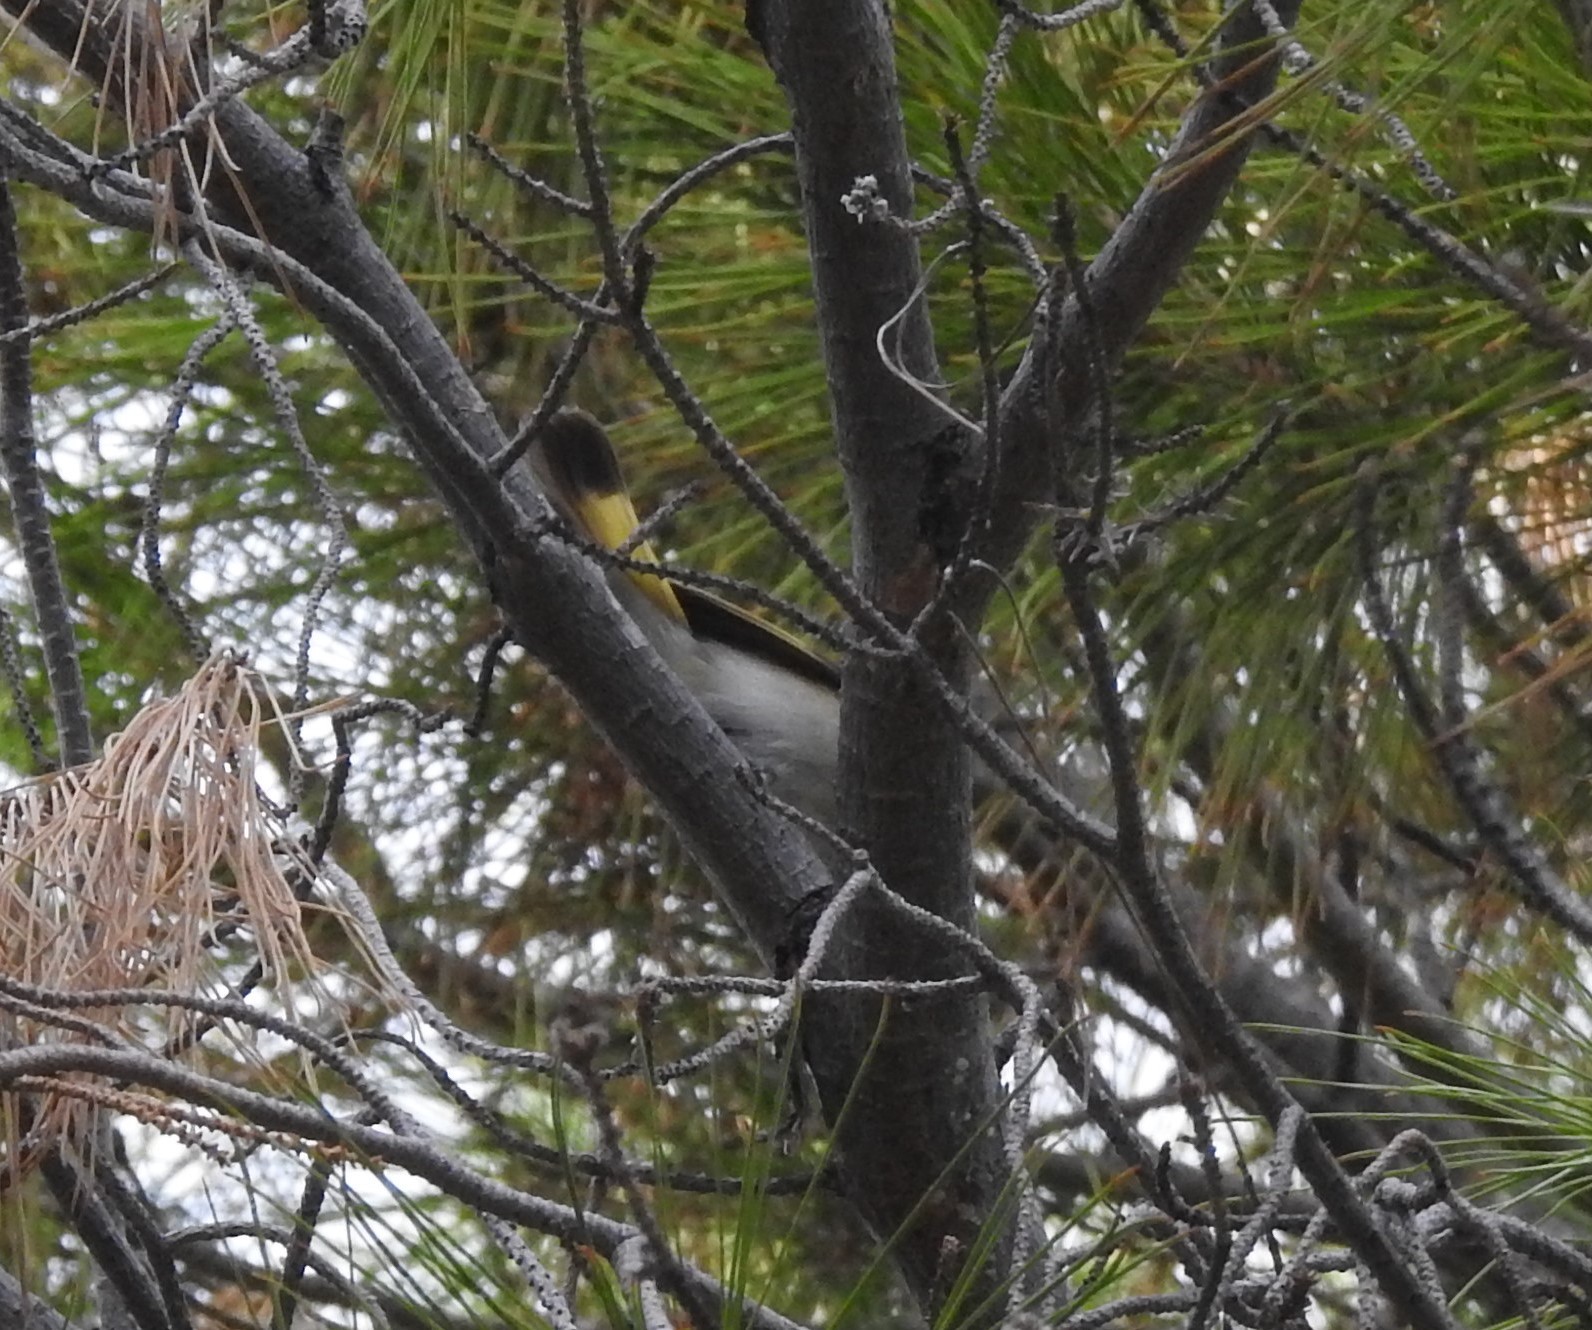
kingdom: Animalia
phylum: Chordata
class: Aves
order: Passeriformes
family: Parulidae
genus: Setophaga
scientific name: Setophaga ruticilla
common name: American redstart
